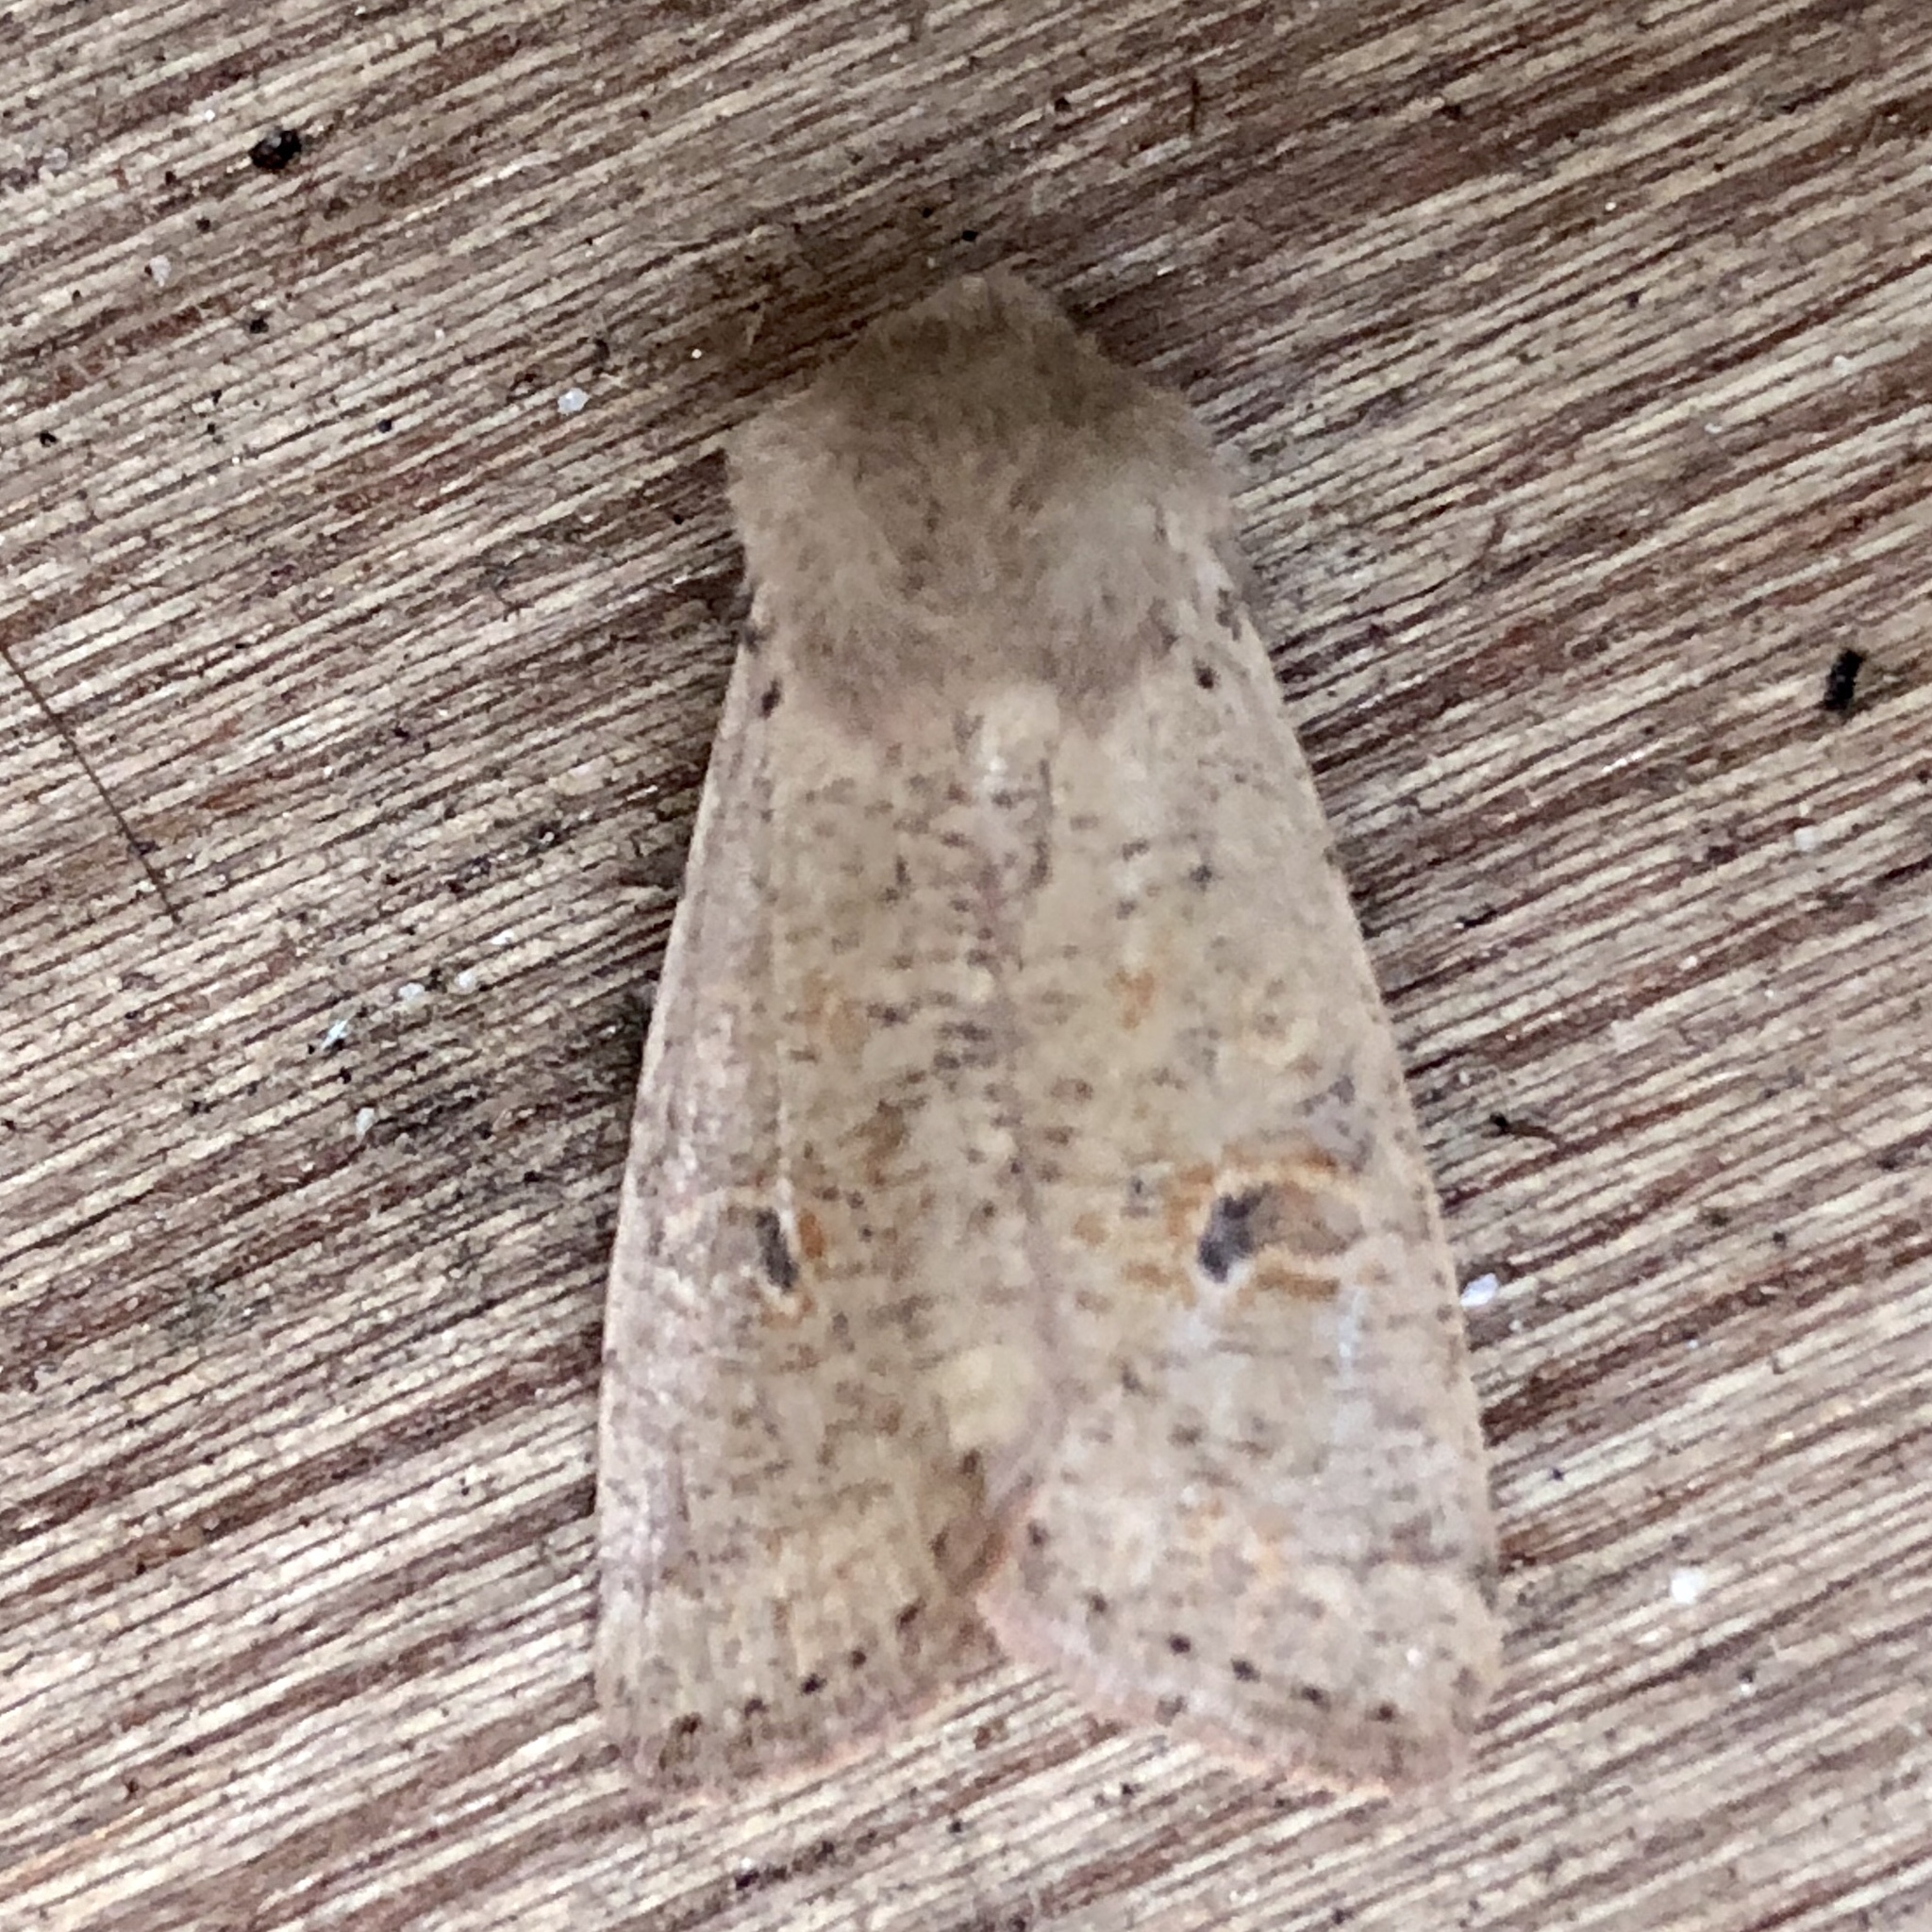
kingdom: Animalia
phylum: Arthropoda
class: Insecta
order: Lepidoptera
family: Noctuidae
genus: Orthosia
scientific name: Orthosia cruda
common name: Small quaker
